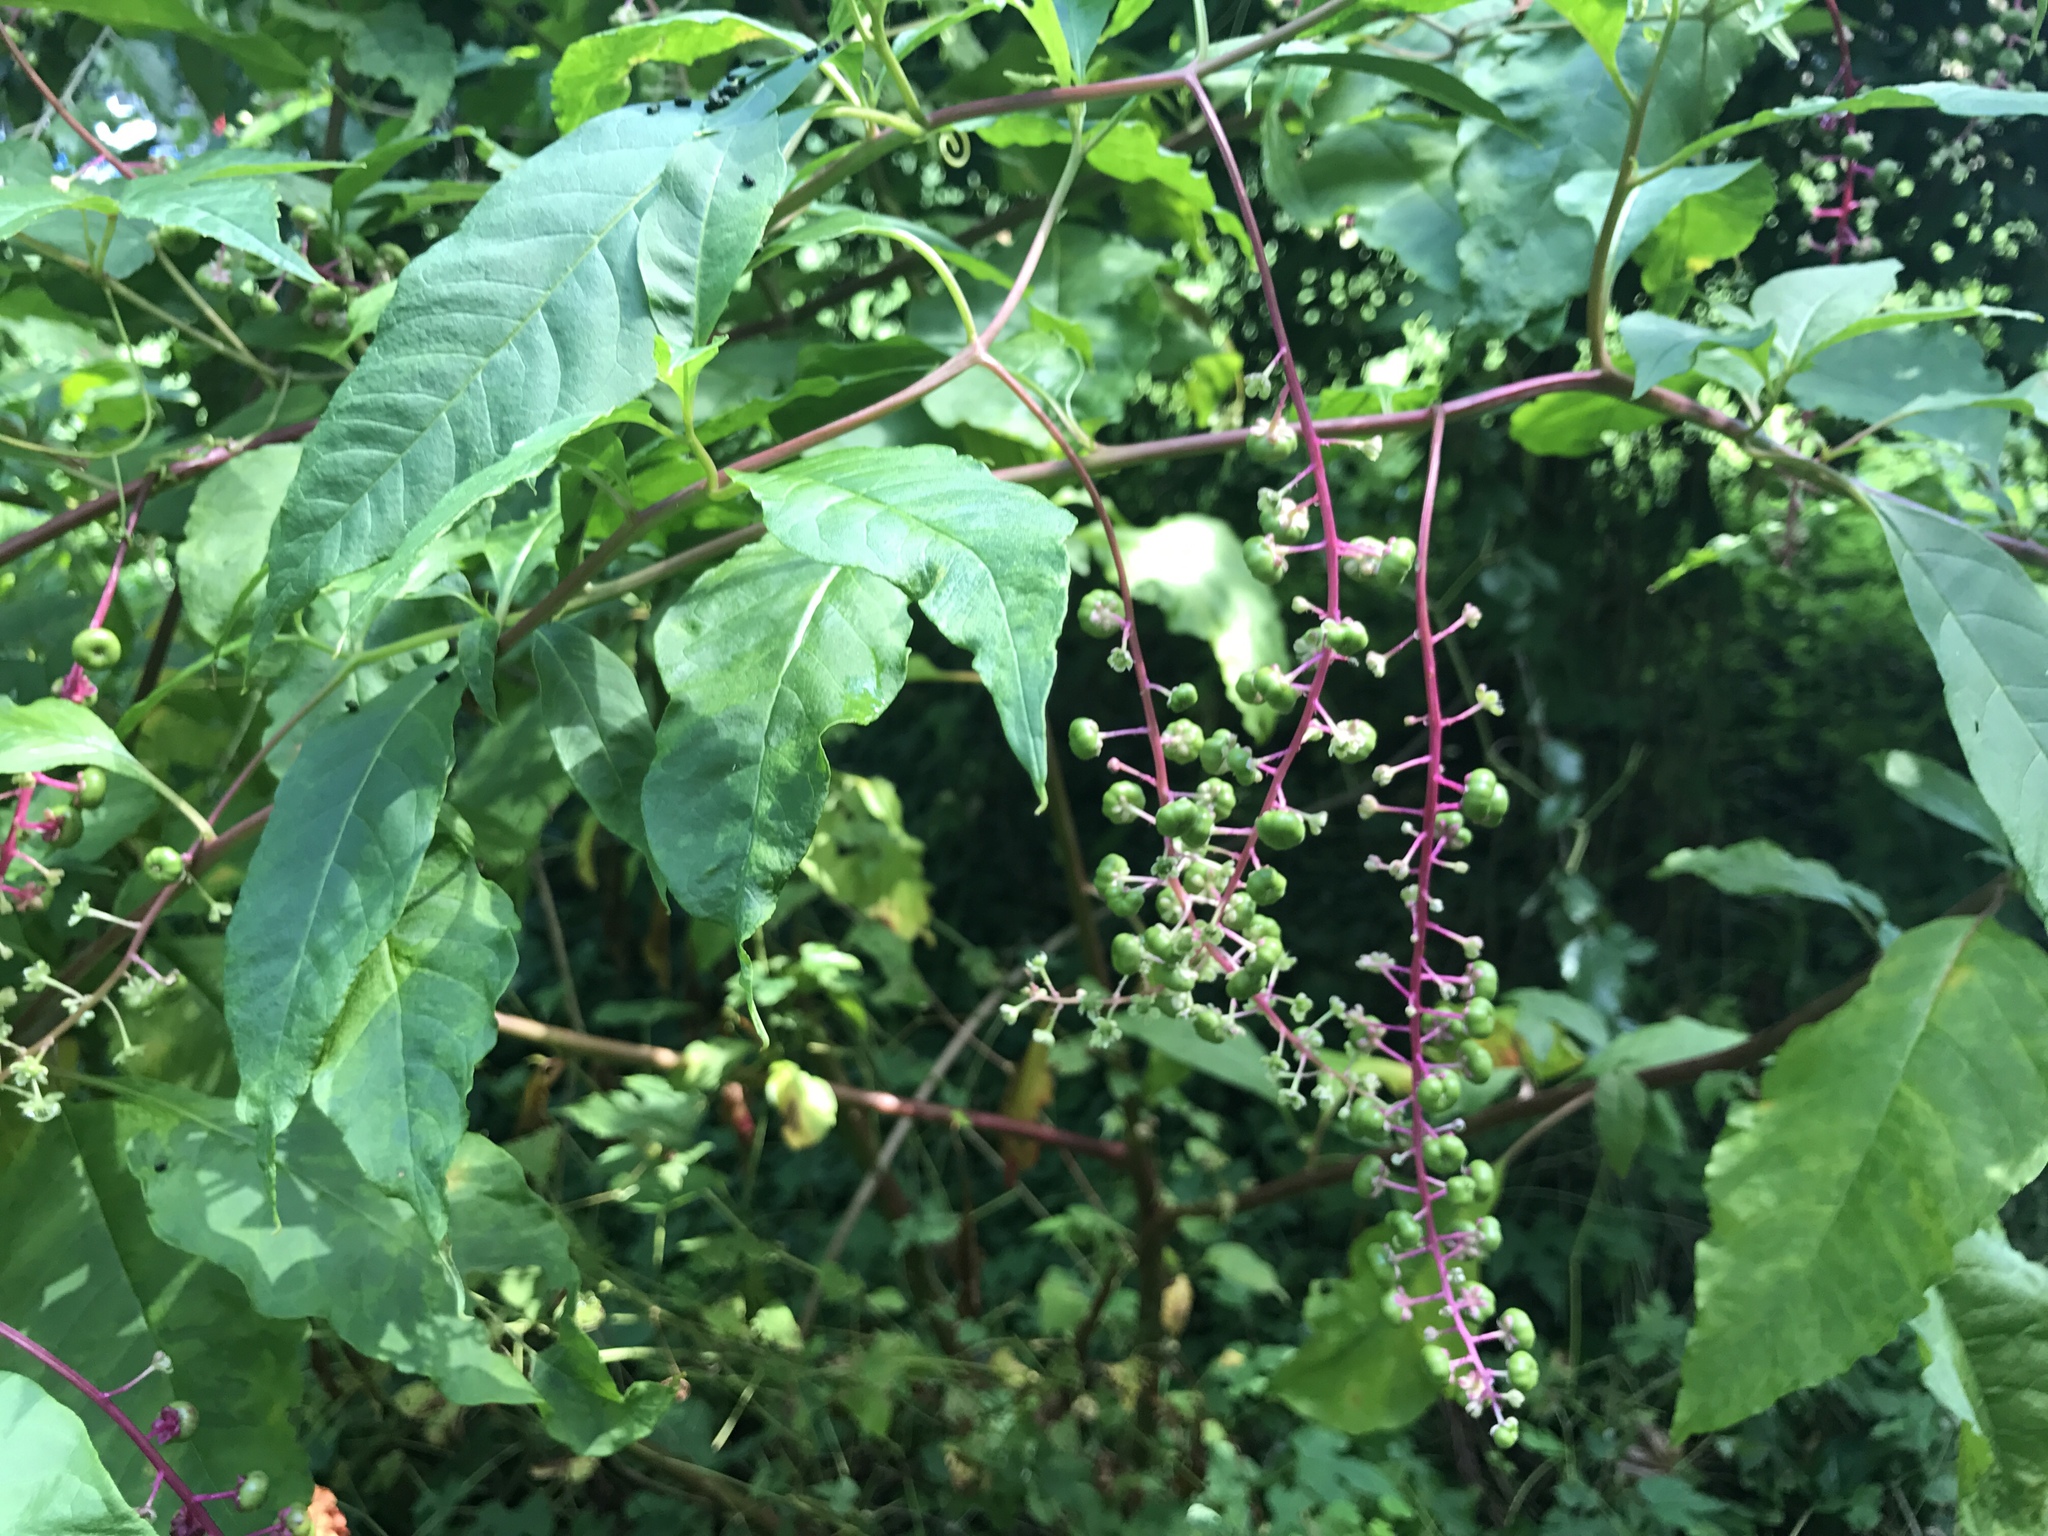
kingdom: Plantae
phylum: Tracheophyta
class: Magnoliopsida
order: Caryophyllales
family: Phytolaccaceae
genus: Phytolacca
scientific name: Phytolacca americana
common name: American pokeweed
